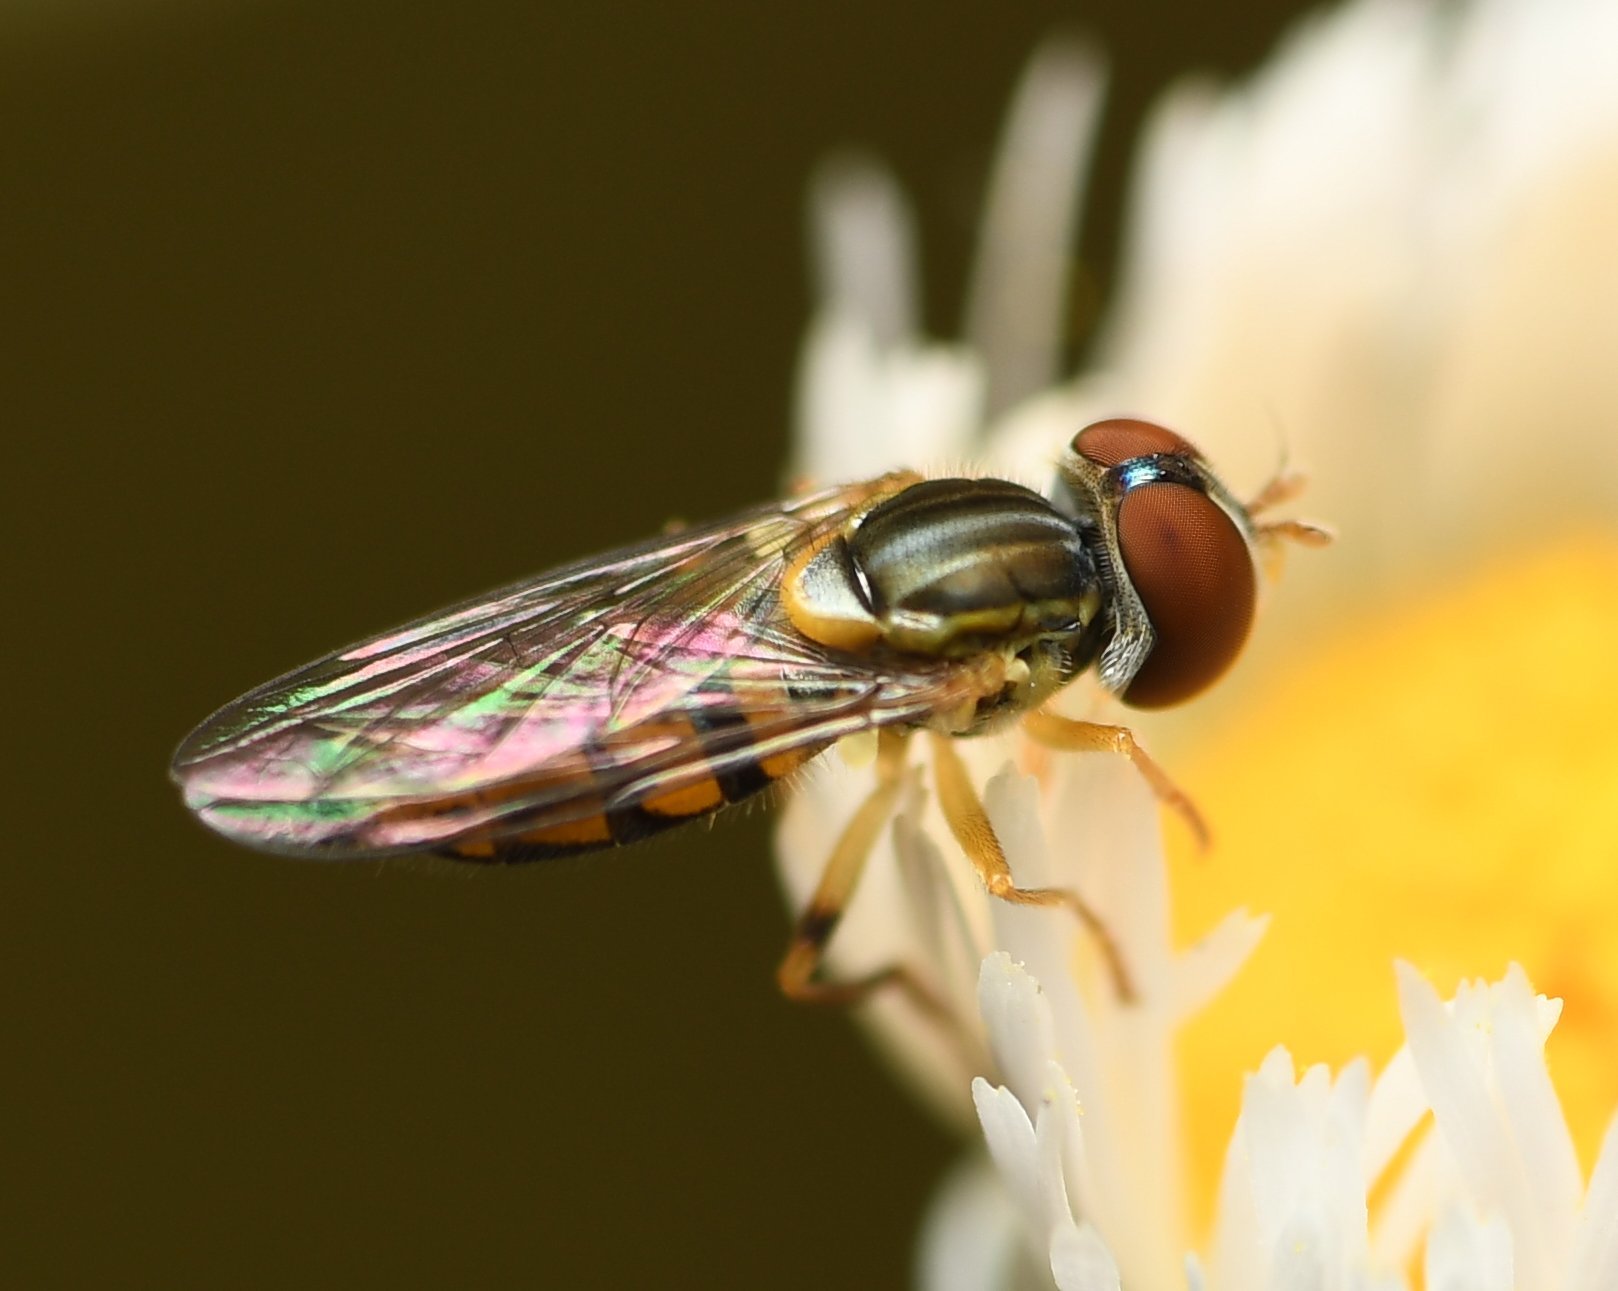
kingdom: Animalia
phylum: Arthropoda
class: Insecta
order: Diptera
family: Syrphidae
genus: Toxomerus
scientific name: Toxomerus boscii
